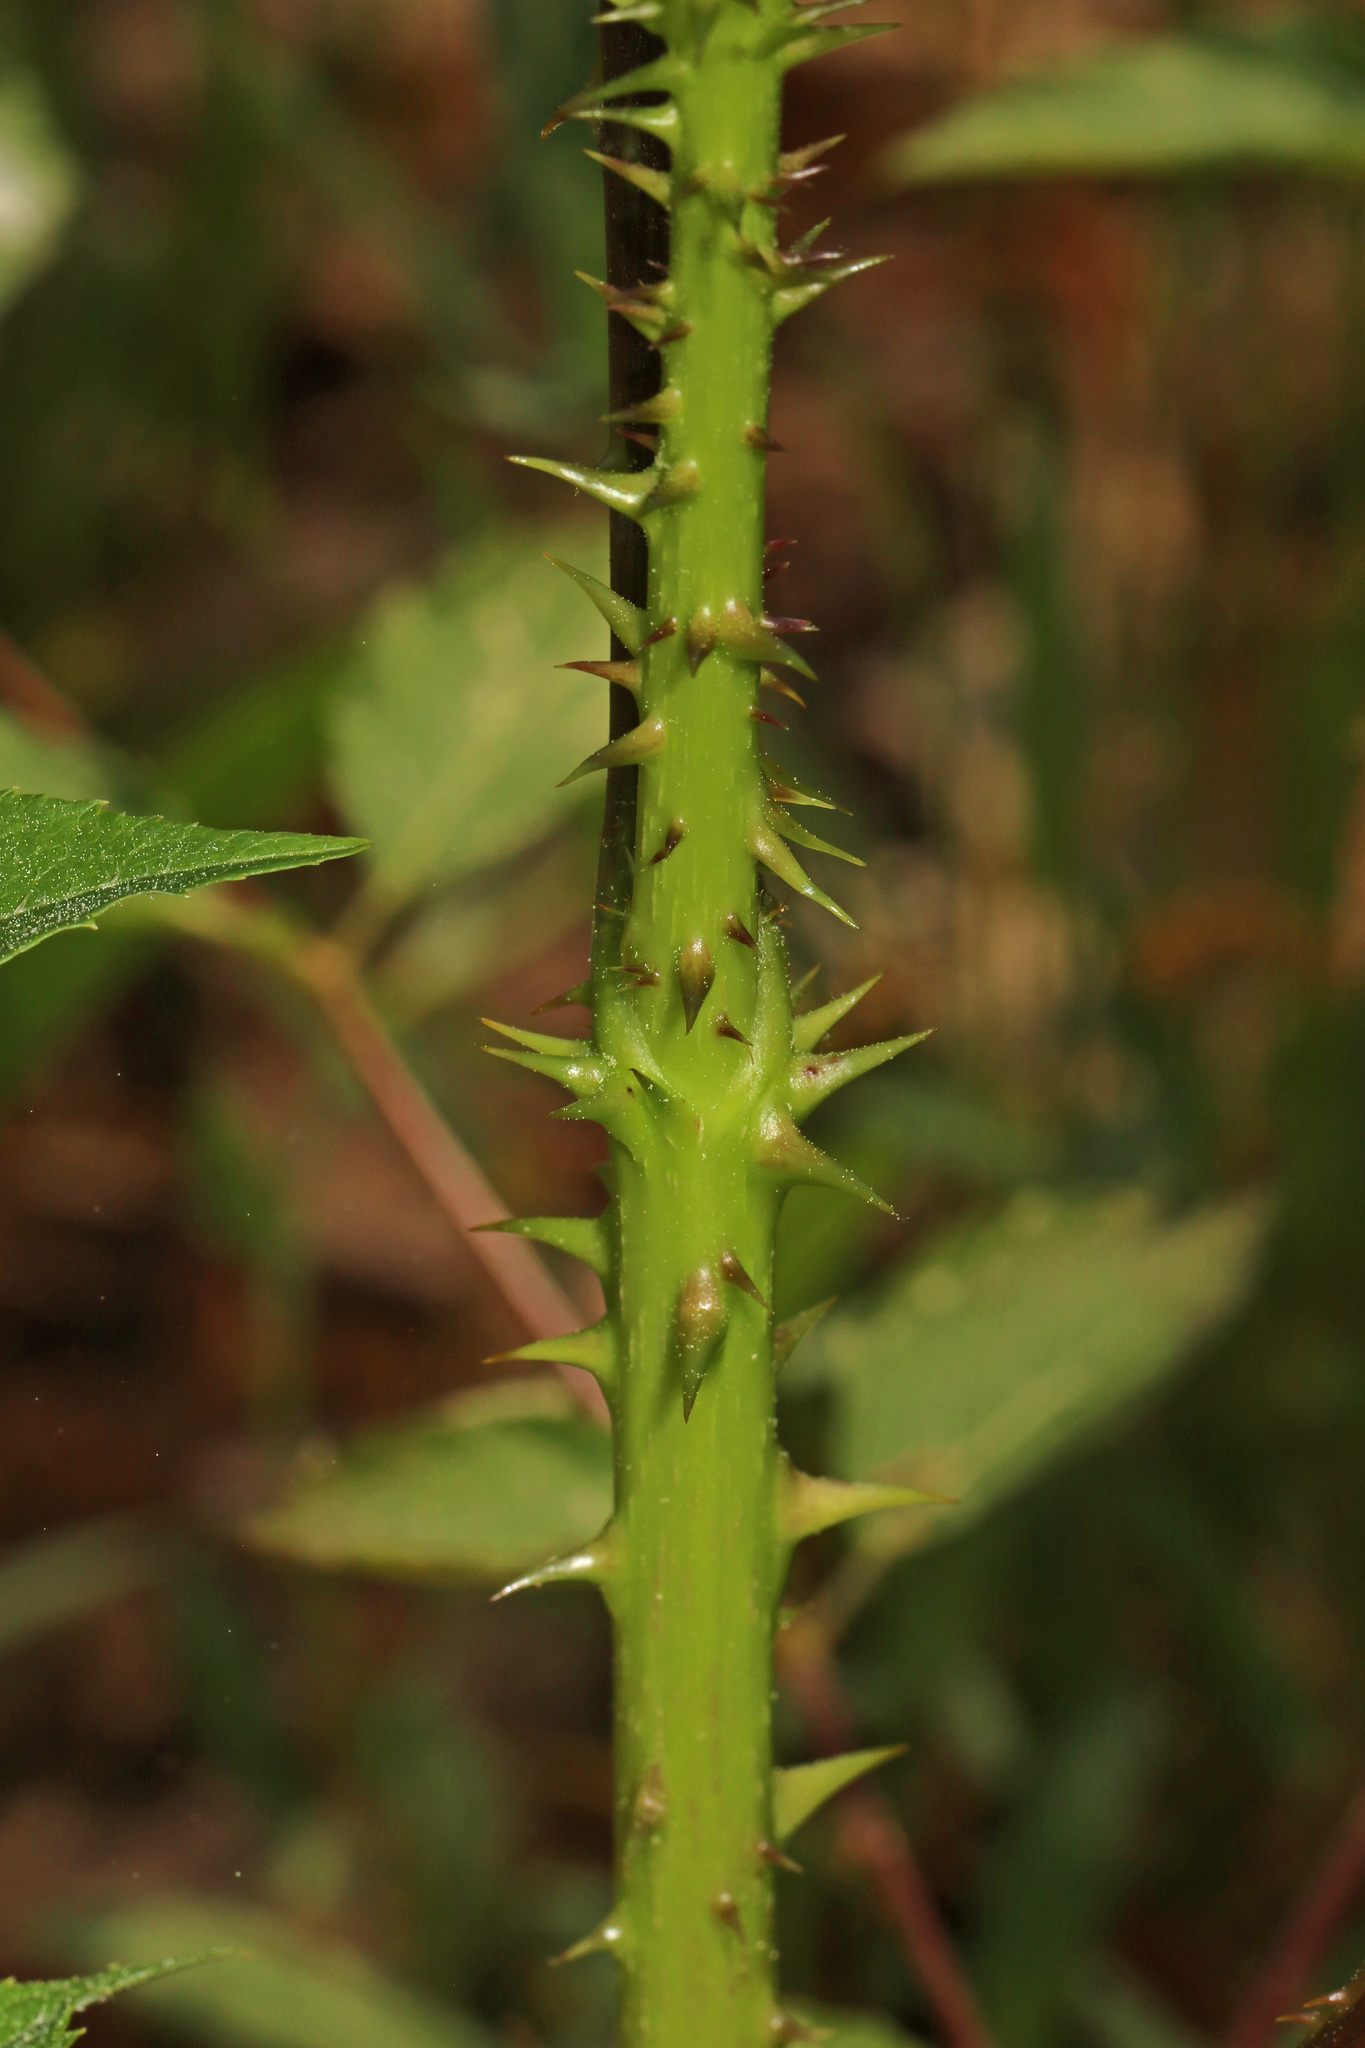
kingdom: Plantae
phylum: Tracheophyta
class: Magnoliopsida
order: Apiales
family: Araliaceae
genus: Aralia
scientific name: Aralia spinosa
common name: Hercules'-club
